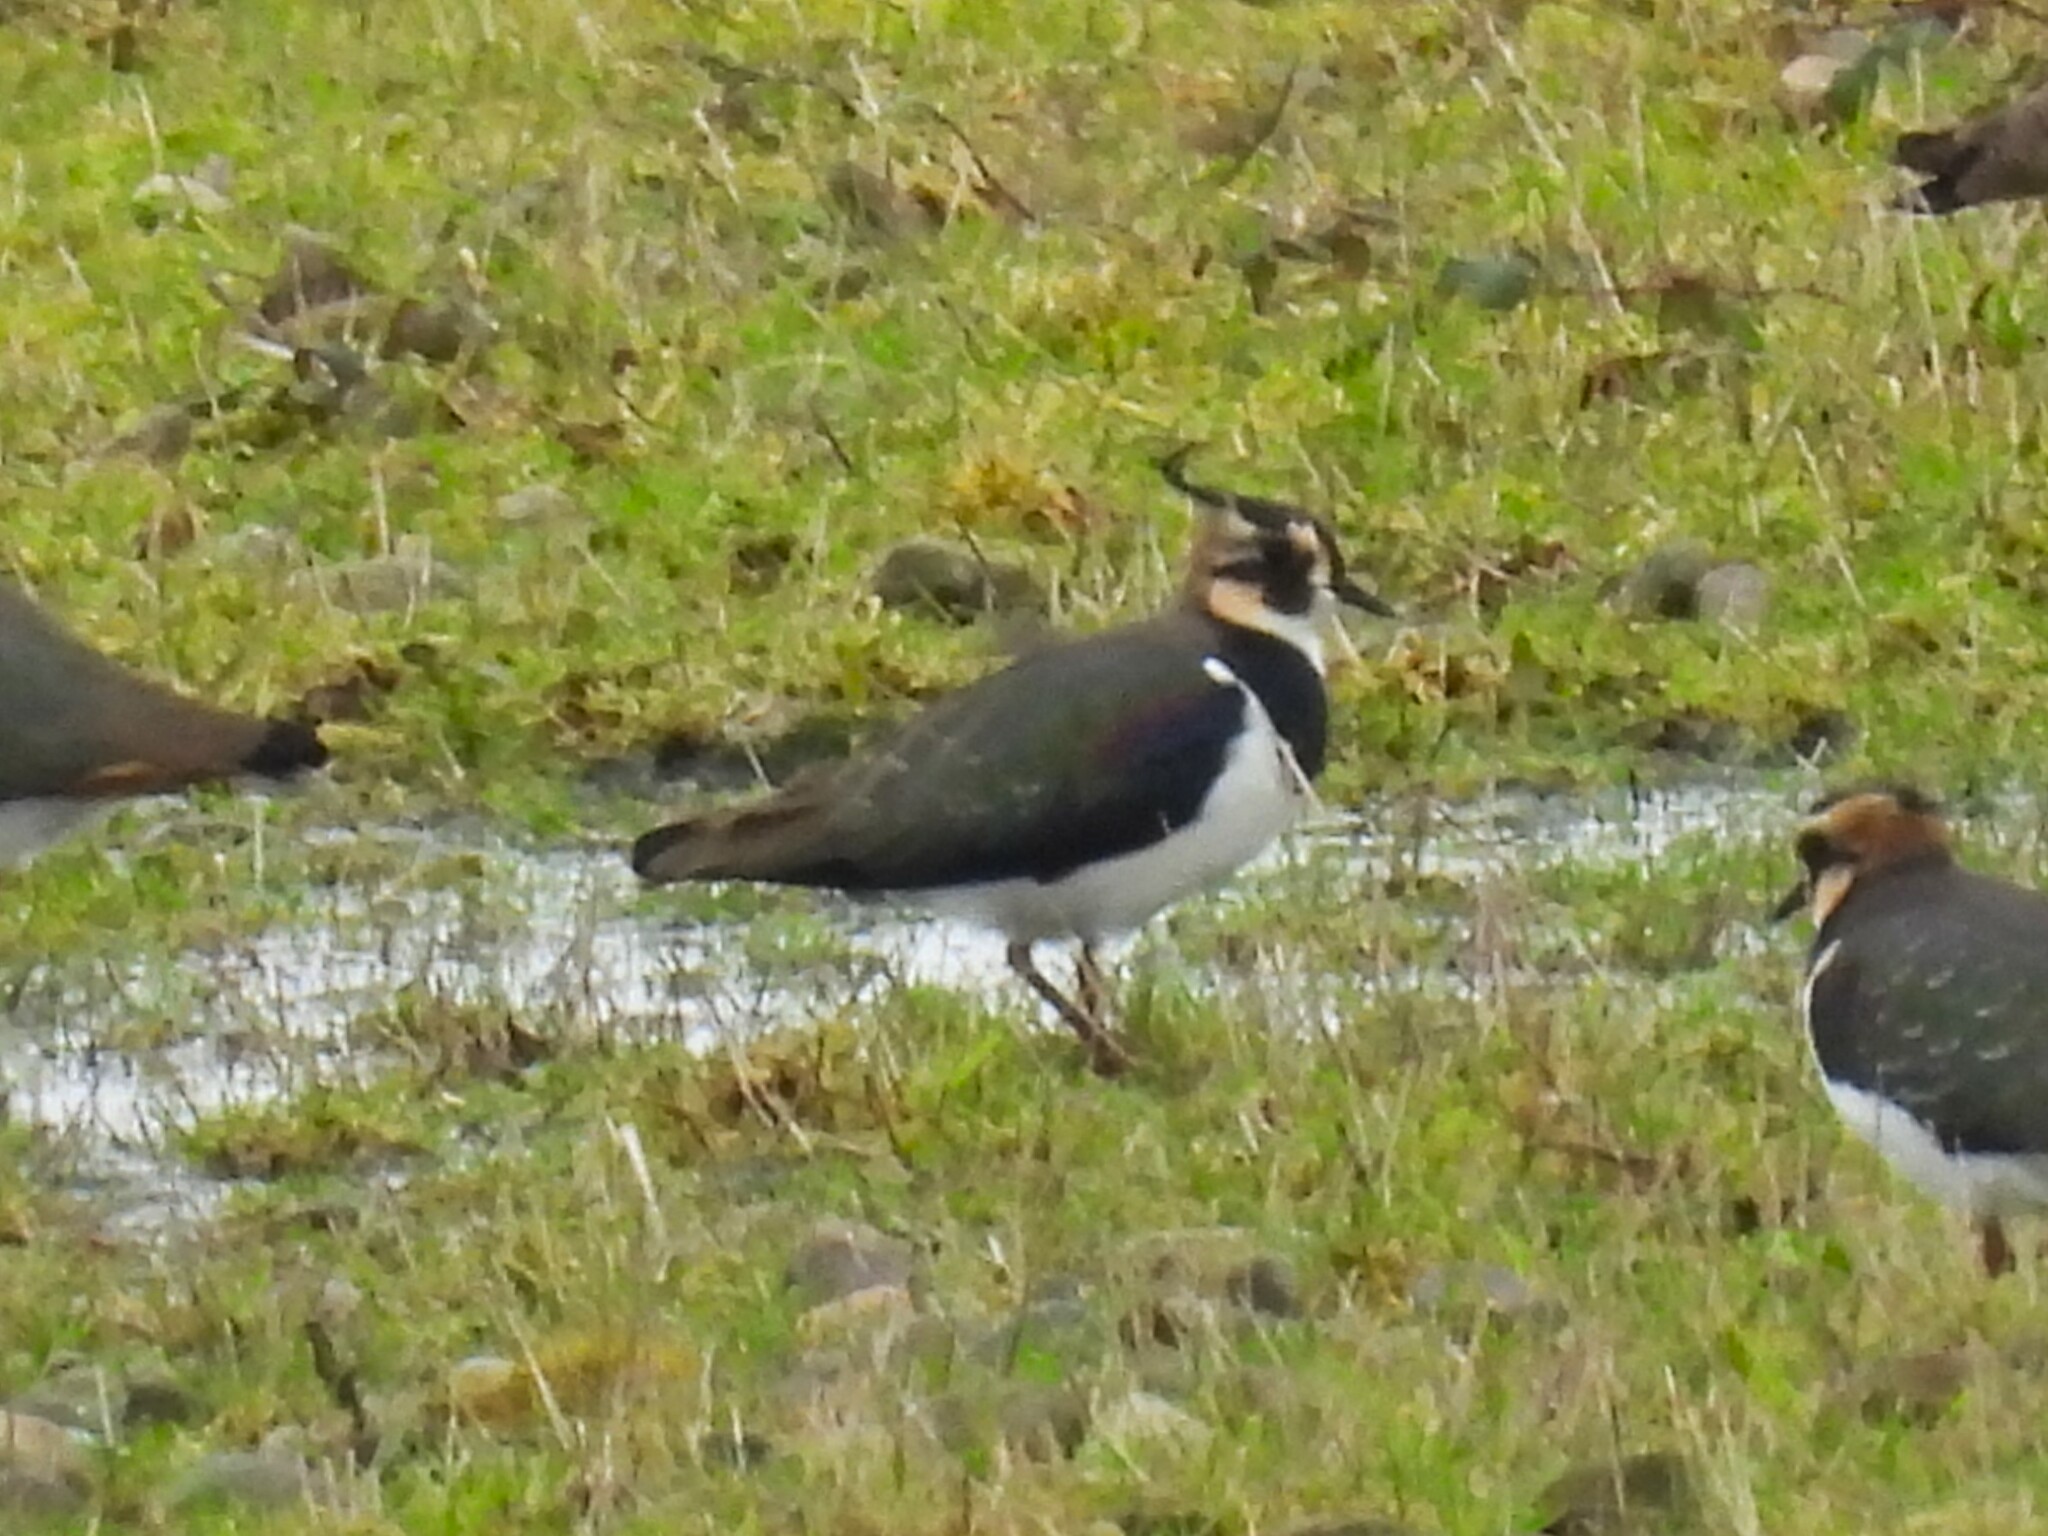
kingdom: Animalia
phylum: Chordata
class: Aves
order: Charadriiformes
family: Charadriidae
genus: Vanellus
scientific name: Vanellus vanellus
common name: Northern lapwing
